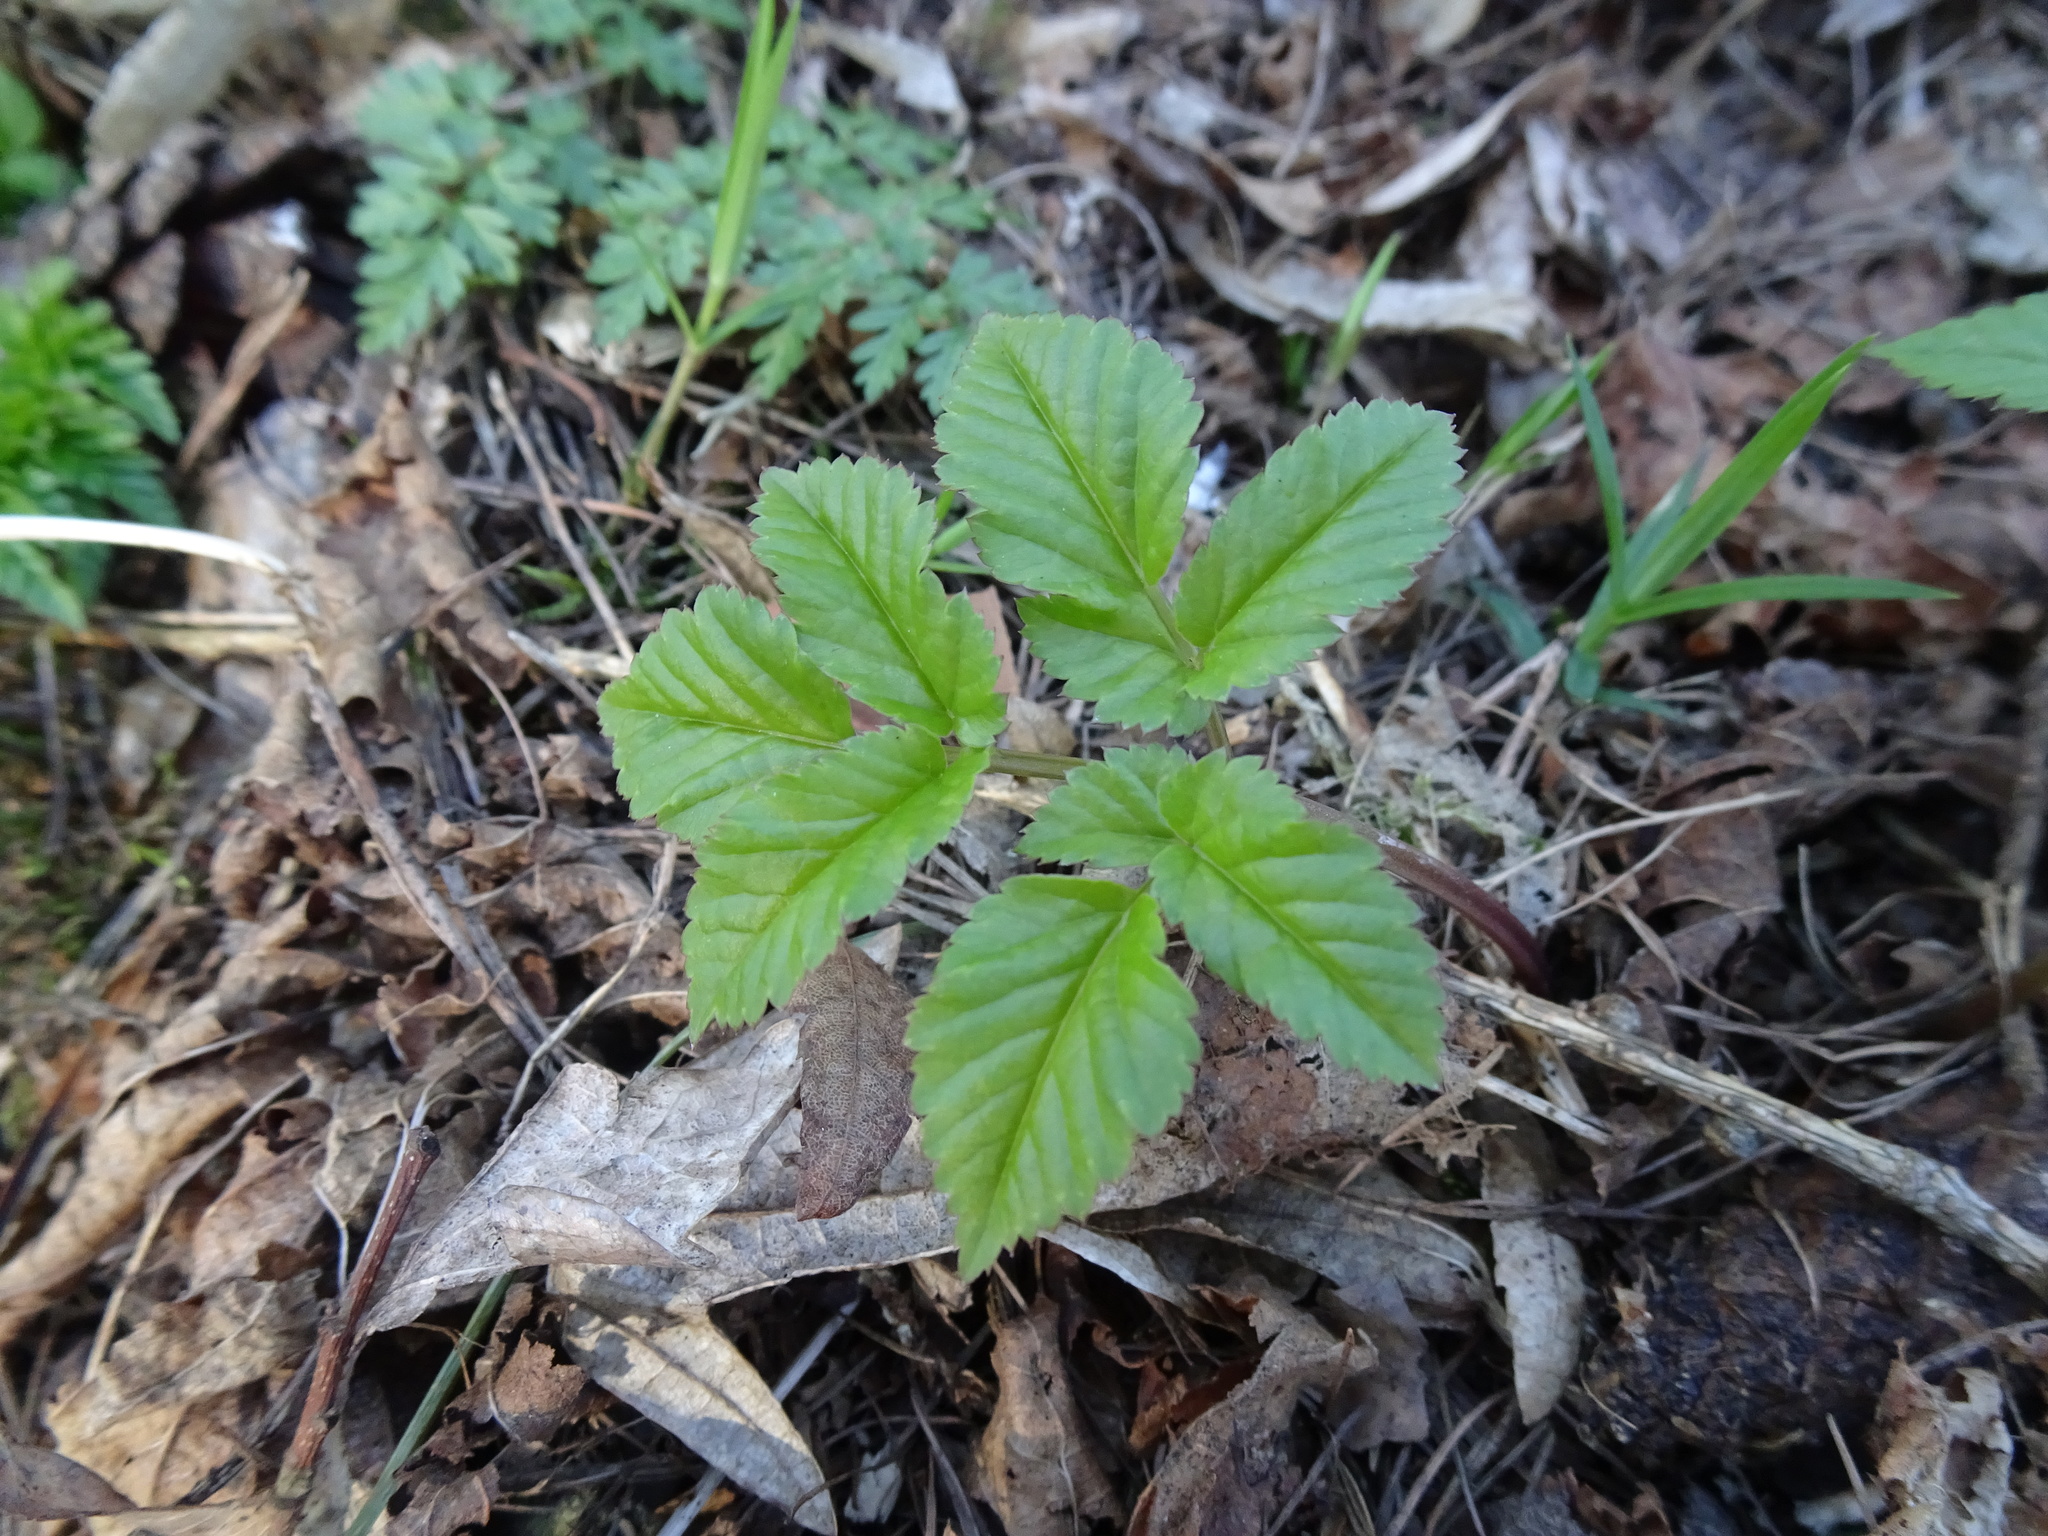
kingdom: Plantae
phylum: Tracheophyta
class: Magnoliopsida
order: Apiales
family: Apiaceae
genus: Aegopodium
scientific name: Aegopodium podagraria
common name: Ground-elder
